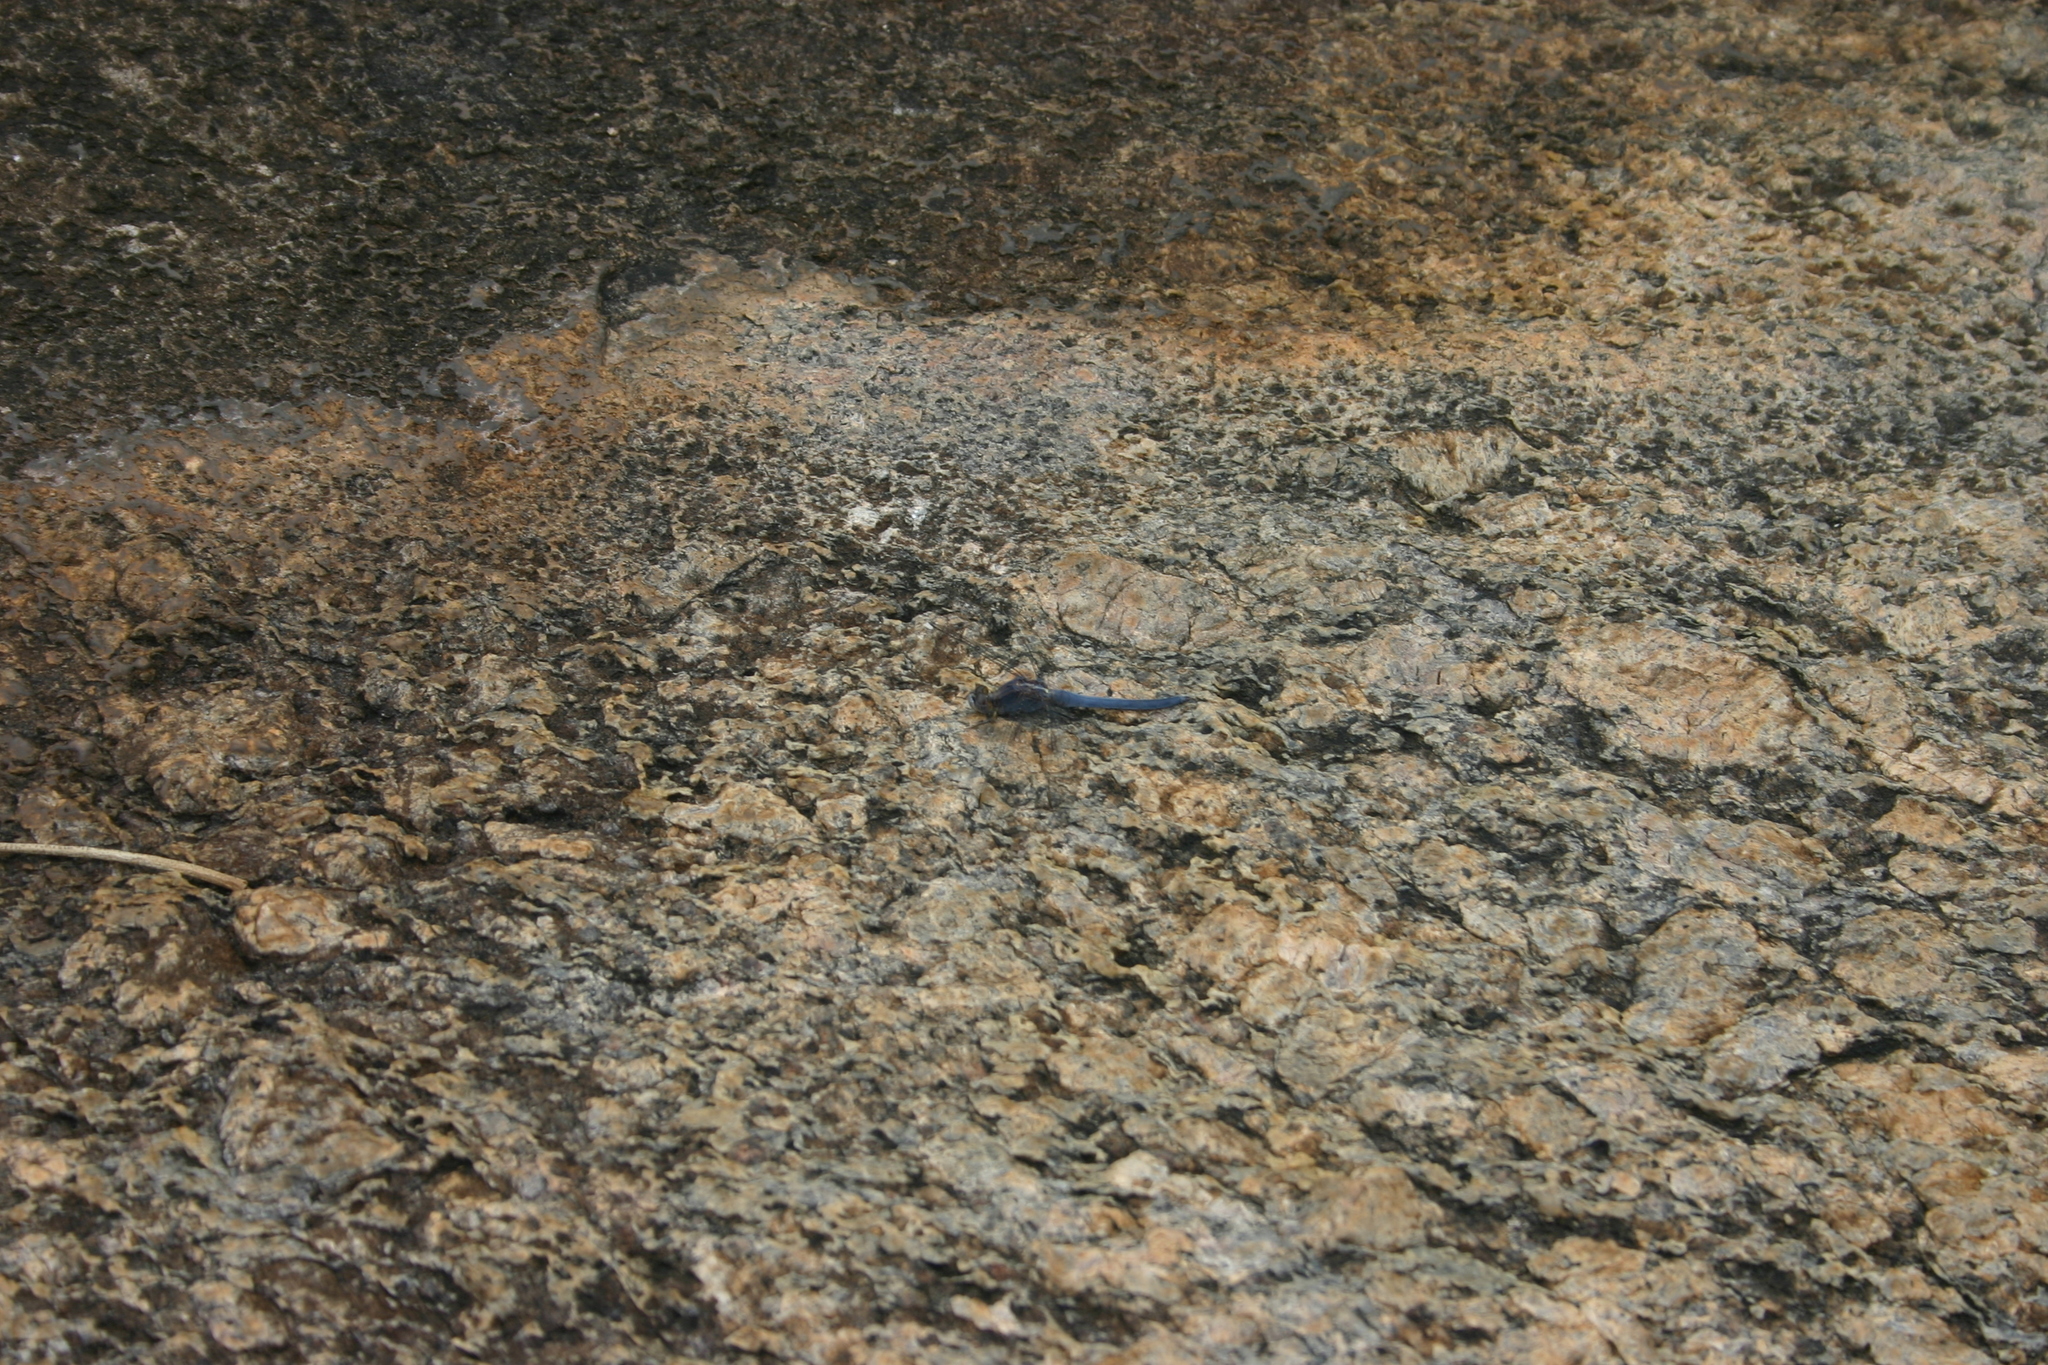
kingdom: Animalia
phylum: Arthropoda
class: Insecta
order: Odonata
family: Libellulidae
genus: Orthetrum
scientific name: Orthetrum taeniolatum
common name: Small skimmer
